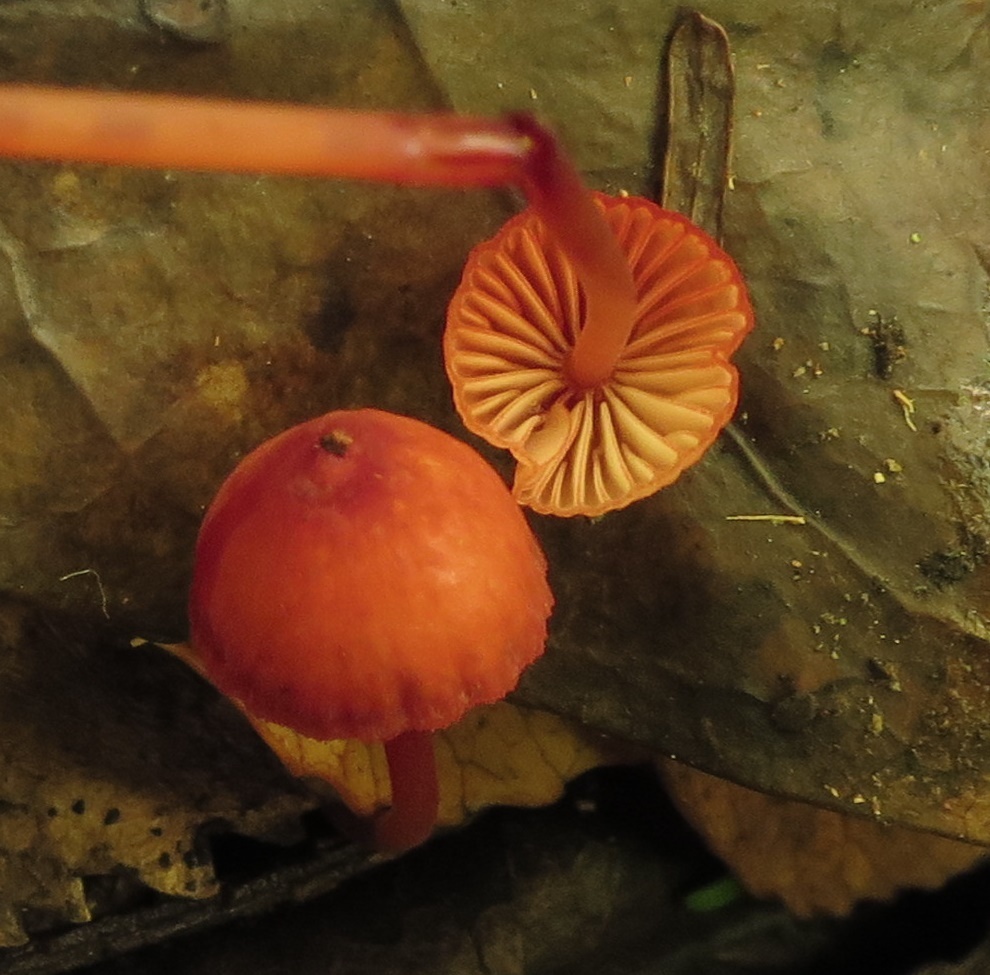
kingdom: Fungi
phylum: Basidiomycota
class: Agaricomycetes
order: Agaricales
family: Mycenaceae
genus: Mycena
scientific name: Mycena ura
